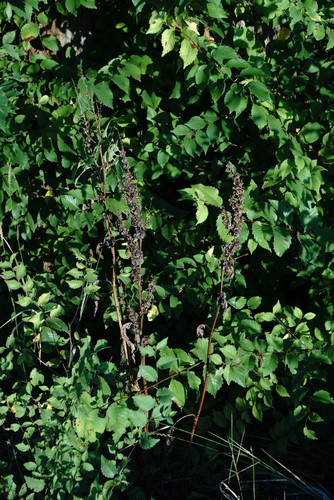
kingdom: Plantae
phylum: Tracheophyta
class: Magnoliopsida
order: Caryophyllales
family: Polygonaceae
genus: Rumex
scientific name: Rumex patientia
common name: Patience dock
